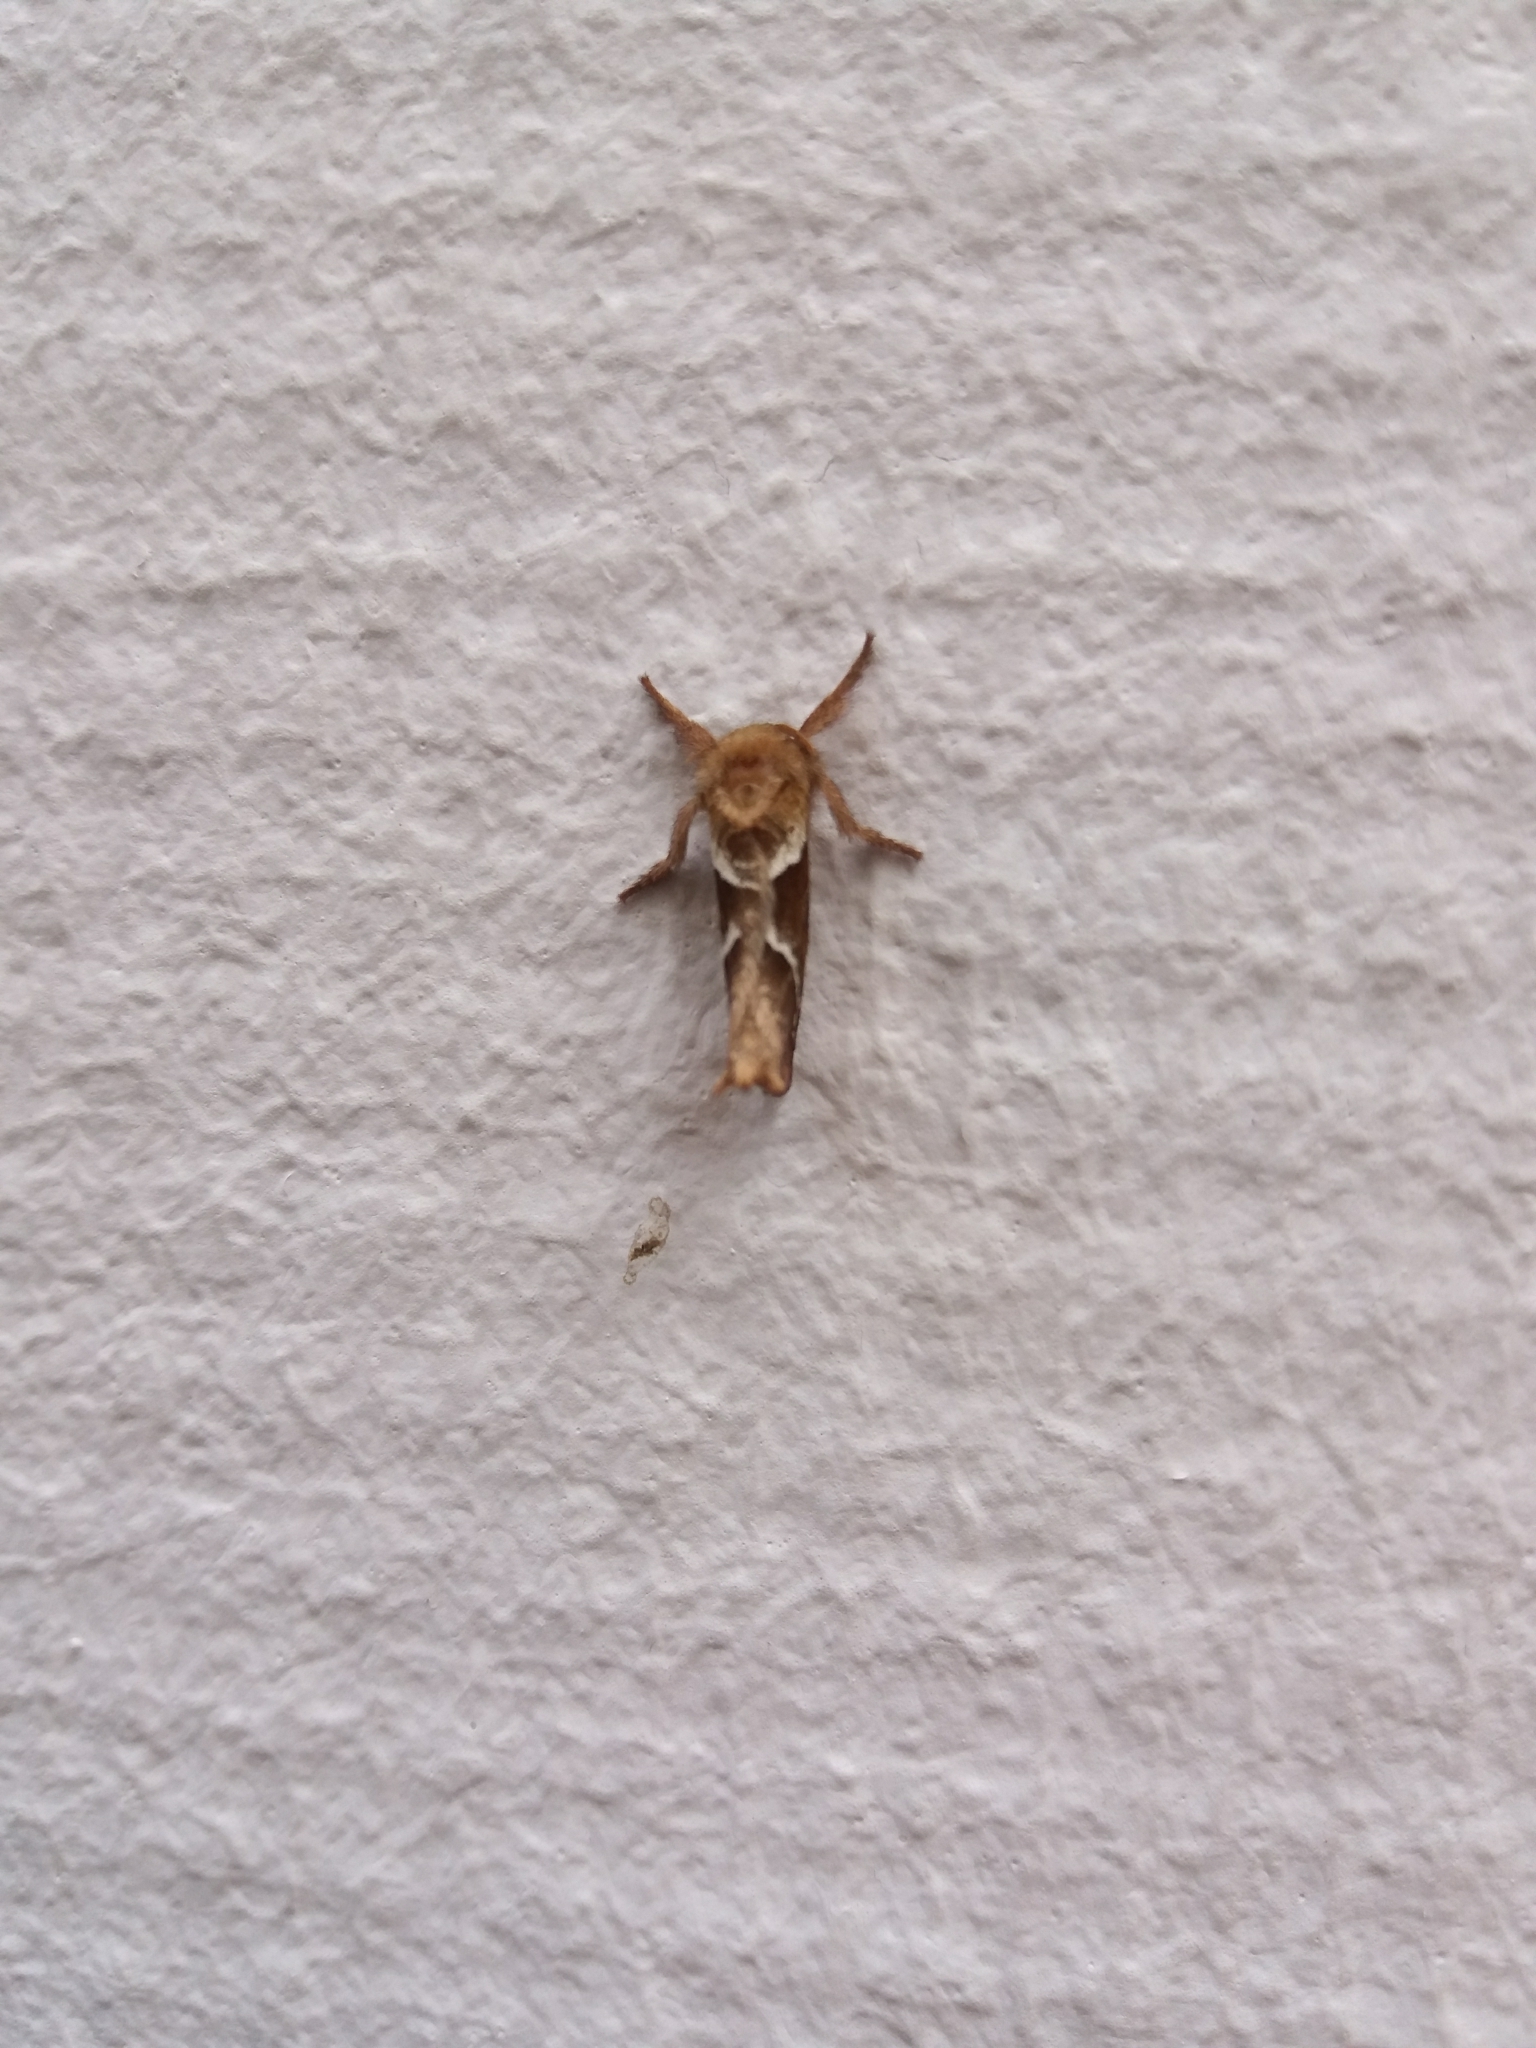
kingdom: Animalia
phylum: Arthropoda
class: Insecta
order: Lepidoptera
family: Hepialidae
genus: Triodia
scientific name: Triodia sylvina
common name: Orange swift
